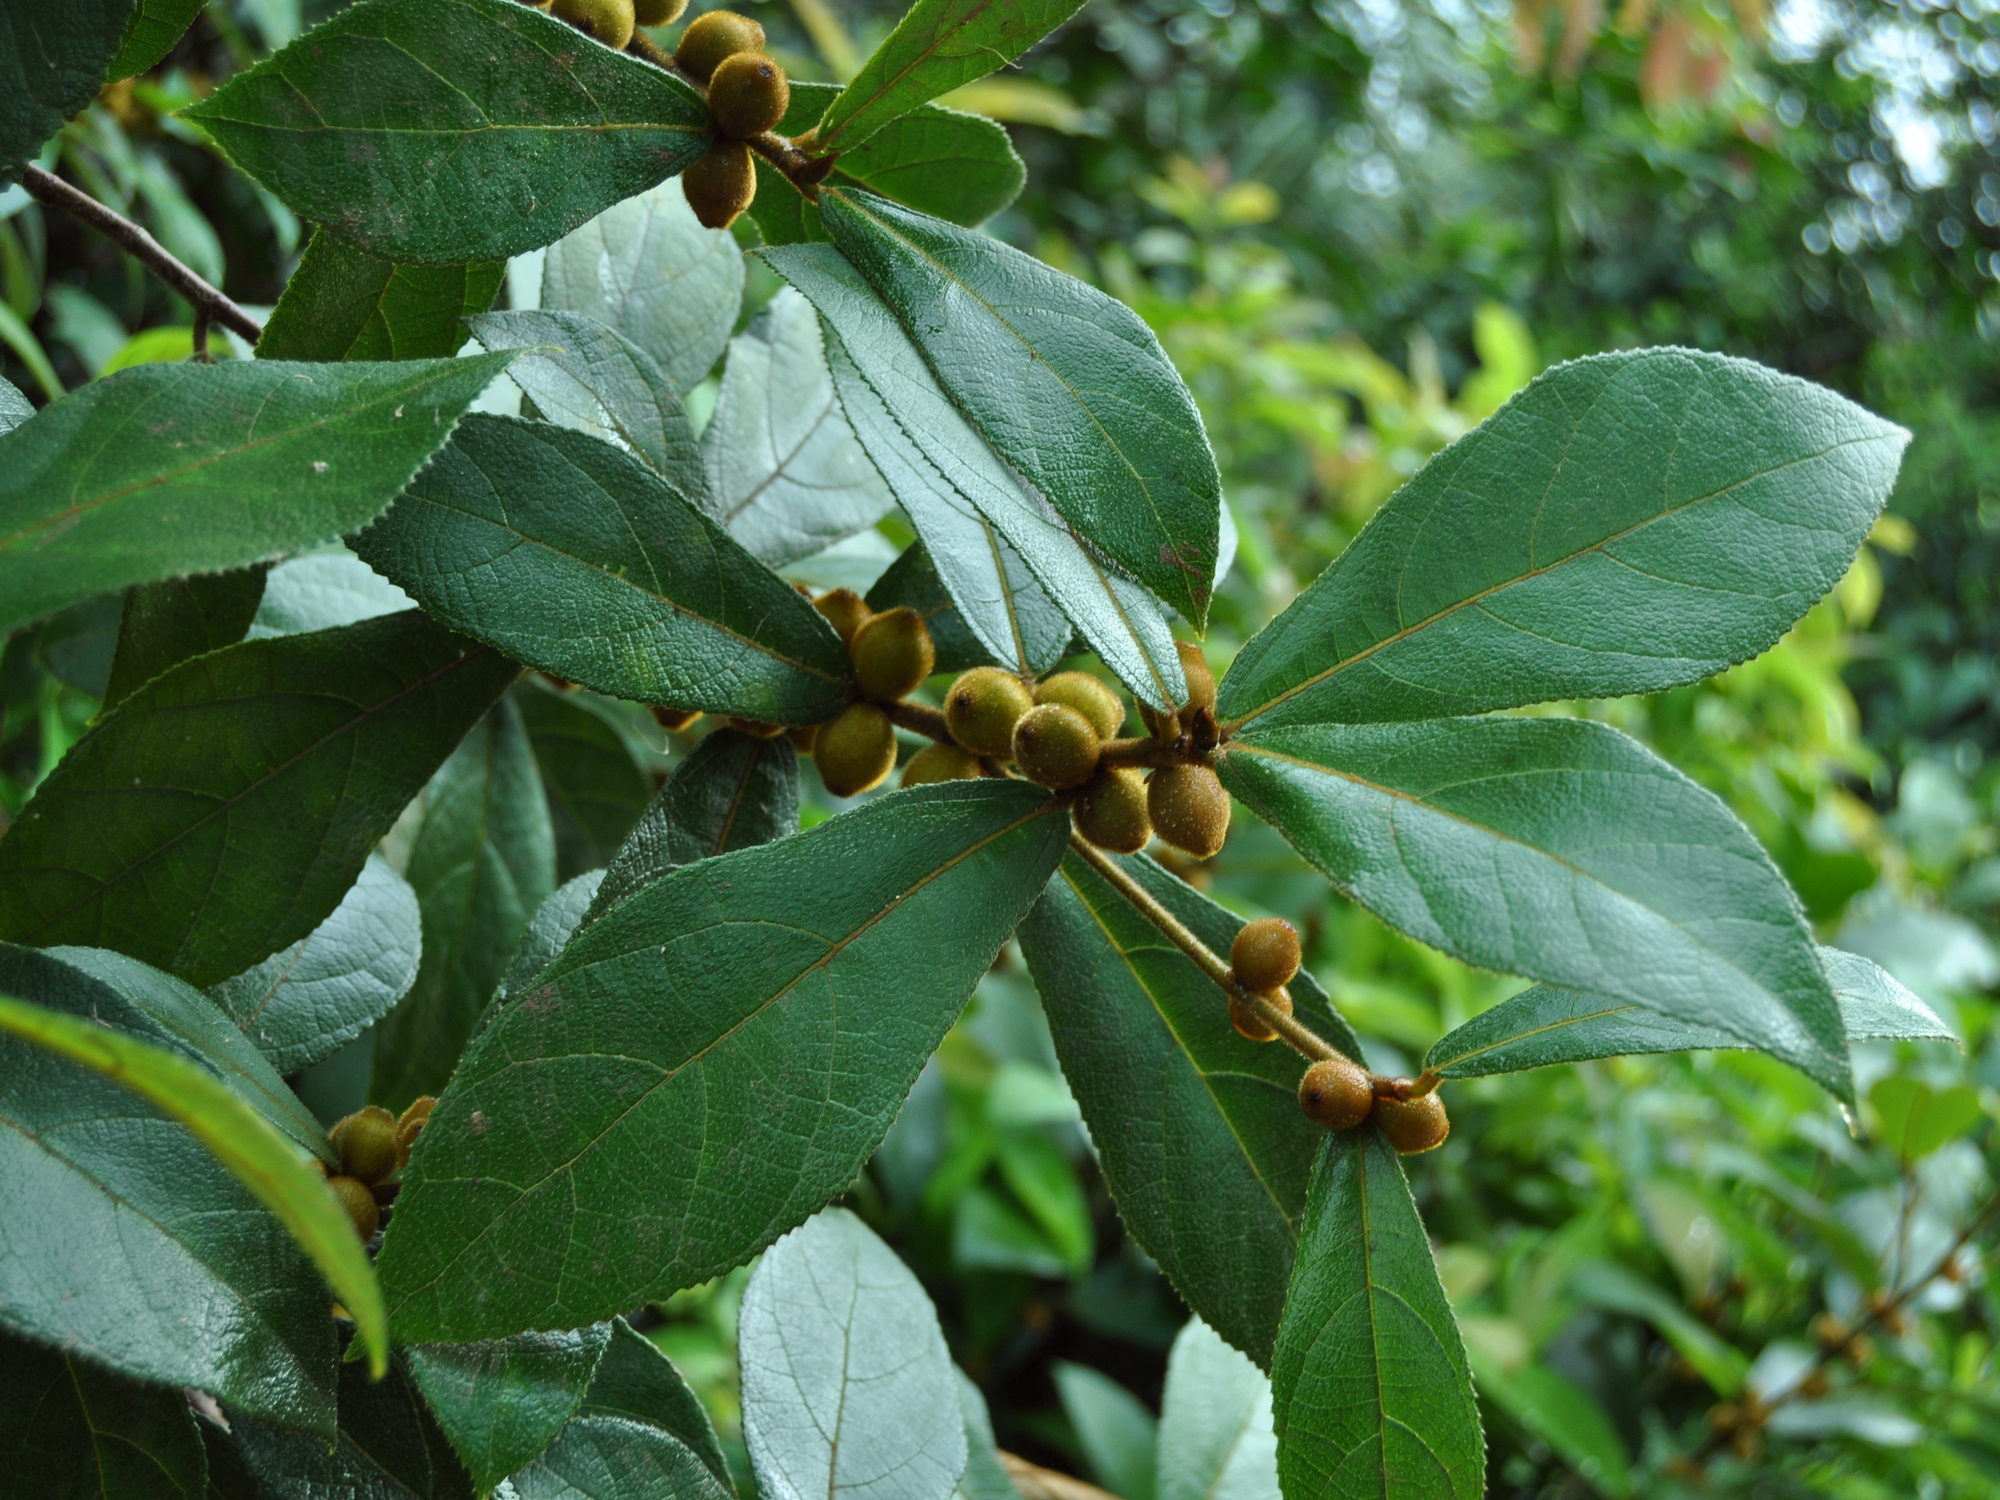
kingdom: Plantae
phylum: Tracheophyta
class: Magnoliopsida
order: Rosales
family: Moraceae
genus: Ficus
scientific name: Ficus aurata
